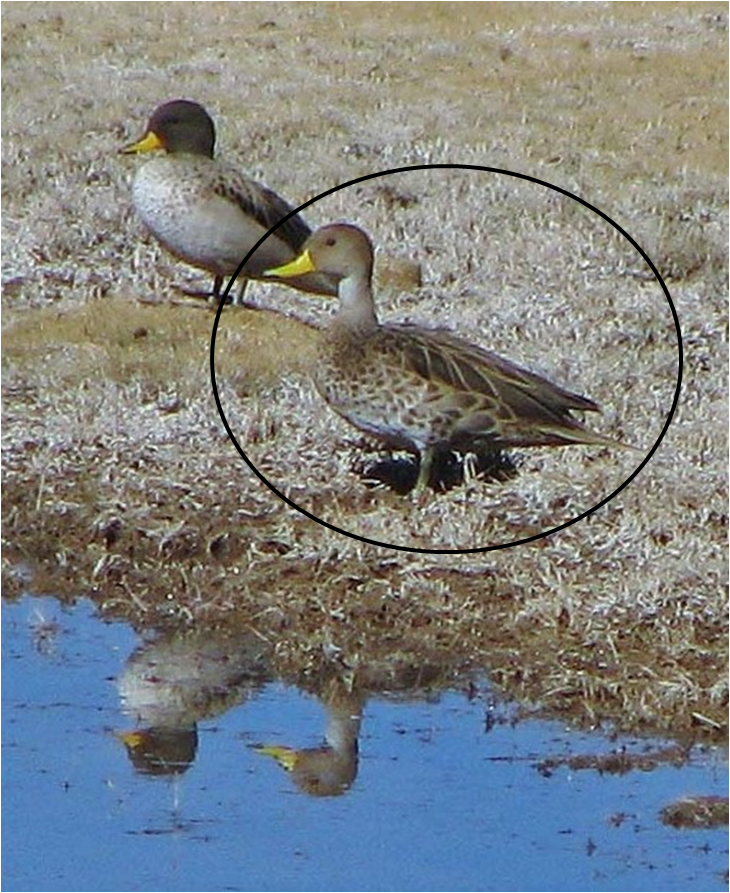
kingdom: Animalia
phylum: Chordata
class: Aves
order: Anseriformes
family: Anatidae
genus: Anas
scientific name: Anas georgica
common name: Yellow-billed pintail
